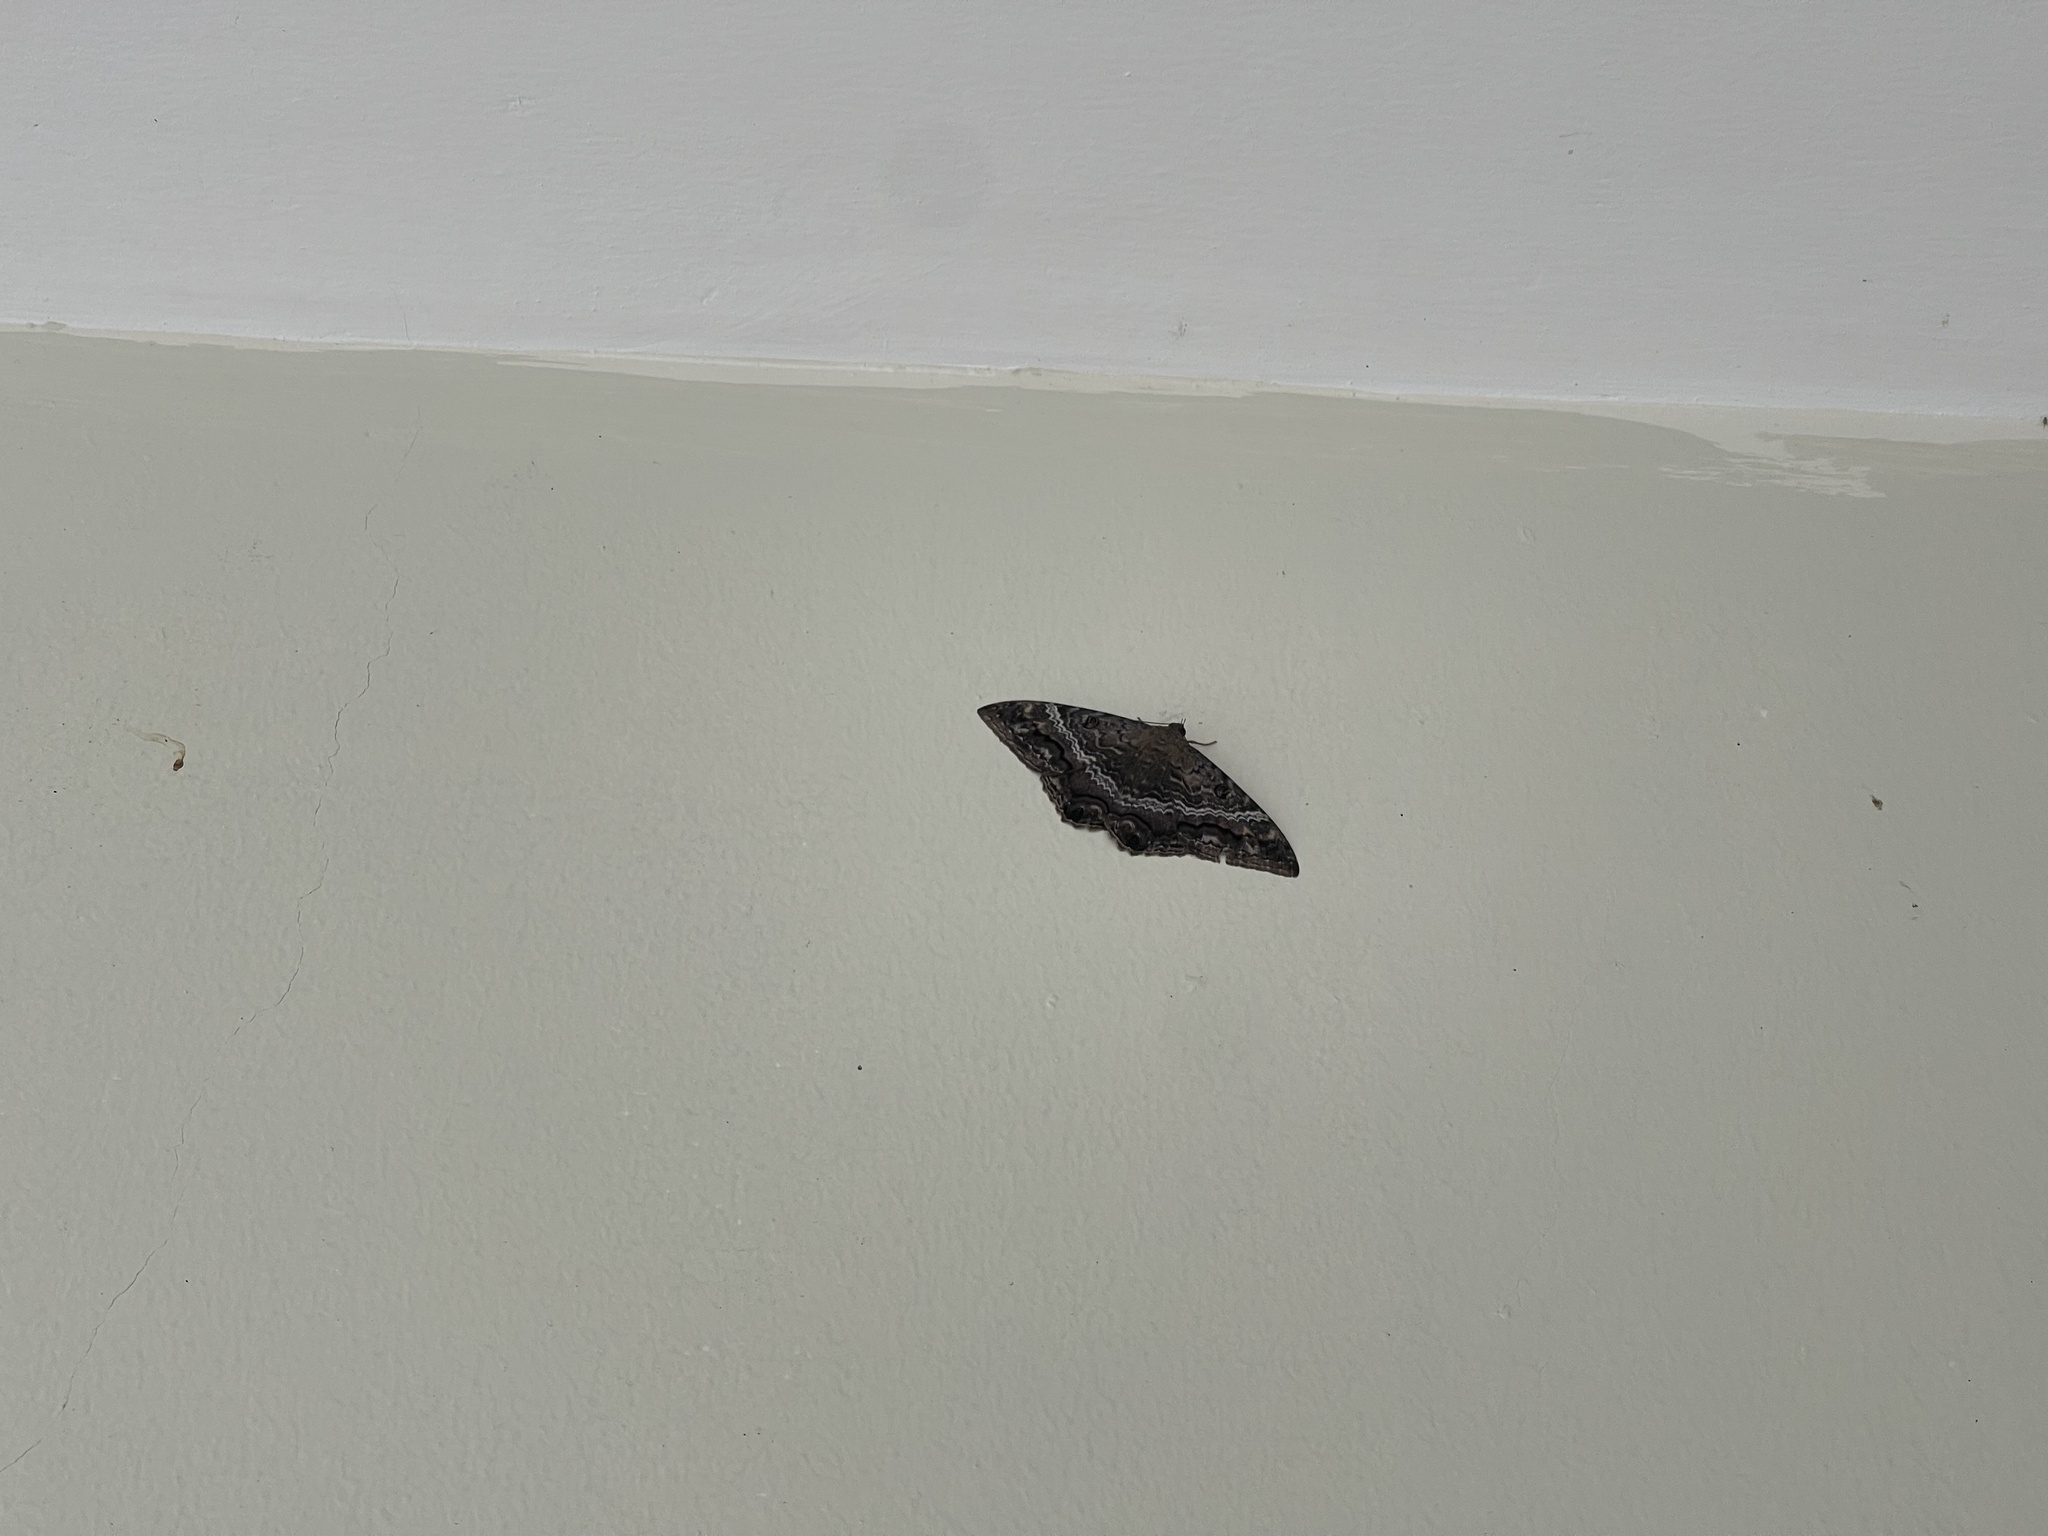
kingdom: Animalia
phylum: Arthropoda
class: Insecta
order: Lepidoptera
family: Erebidae
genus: Ascalapha
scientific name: Ascalapha odorata
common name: Black witch
